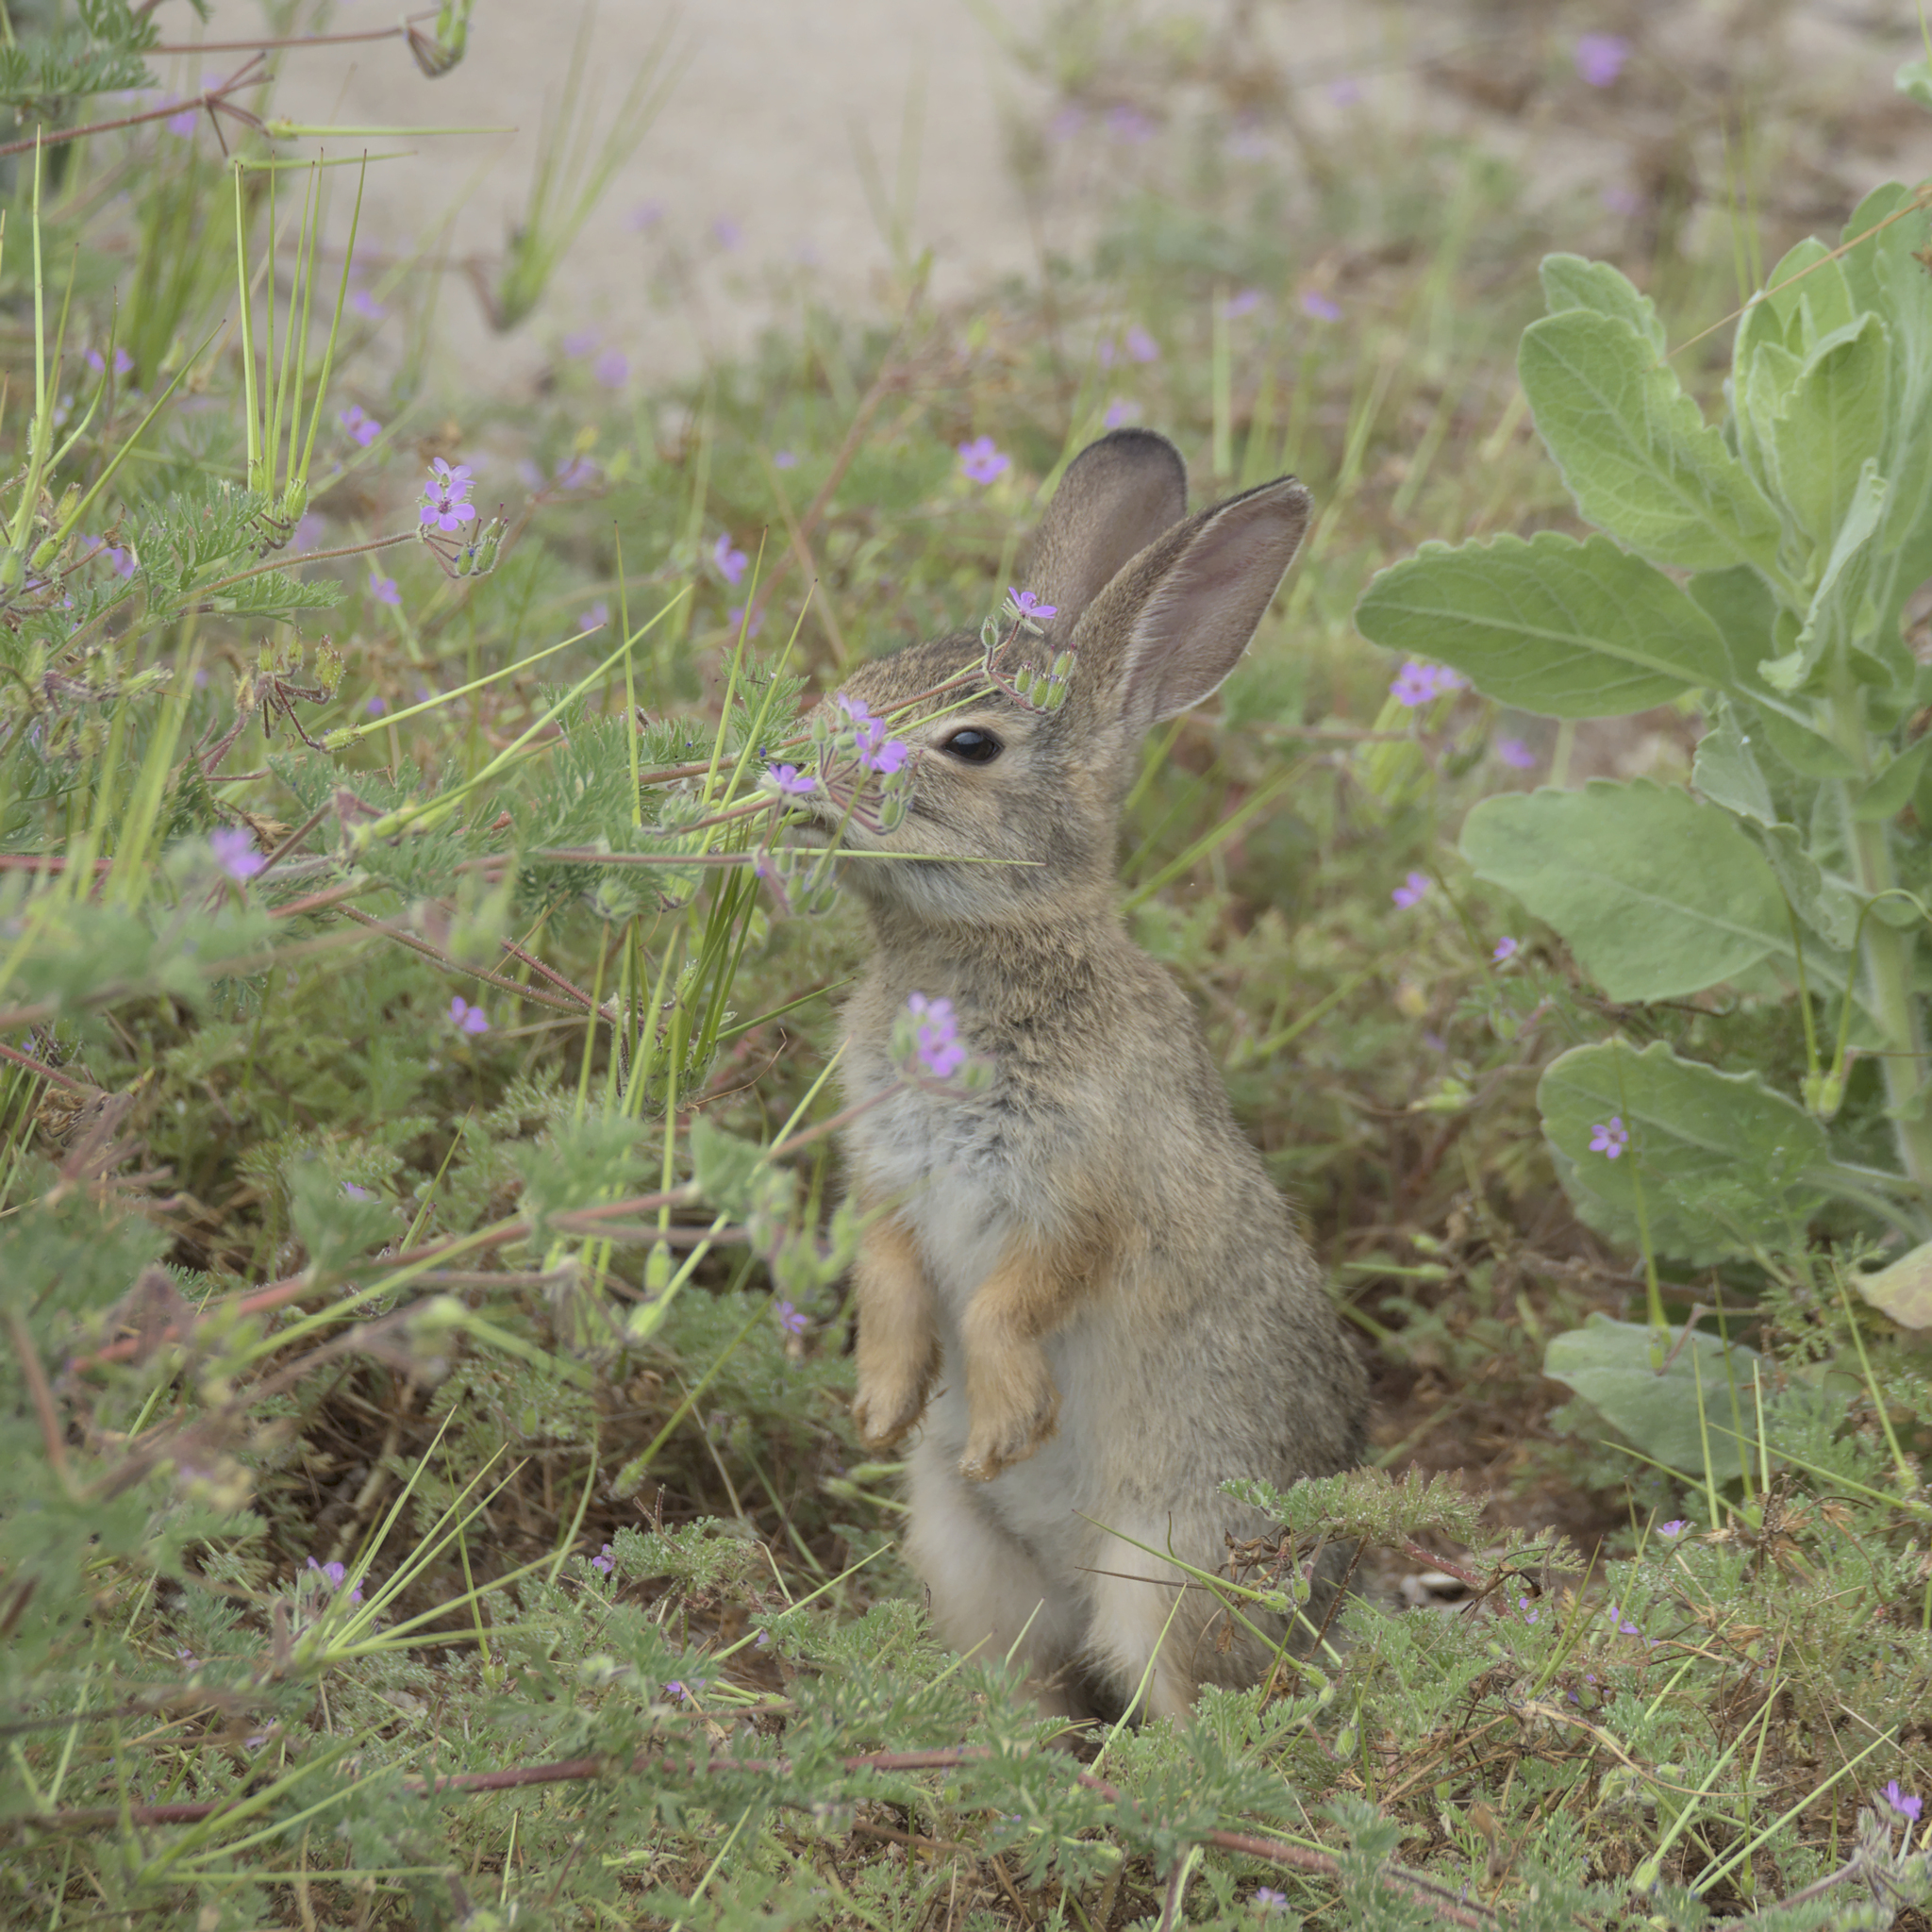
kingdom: Animalia
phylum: Chordata
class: Mammalia
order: Lagomorpha
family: Leporidae
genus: Sylvilagus
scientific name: Sylvilagus audubonii
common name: Desert cottontail
